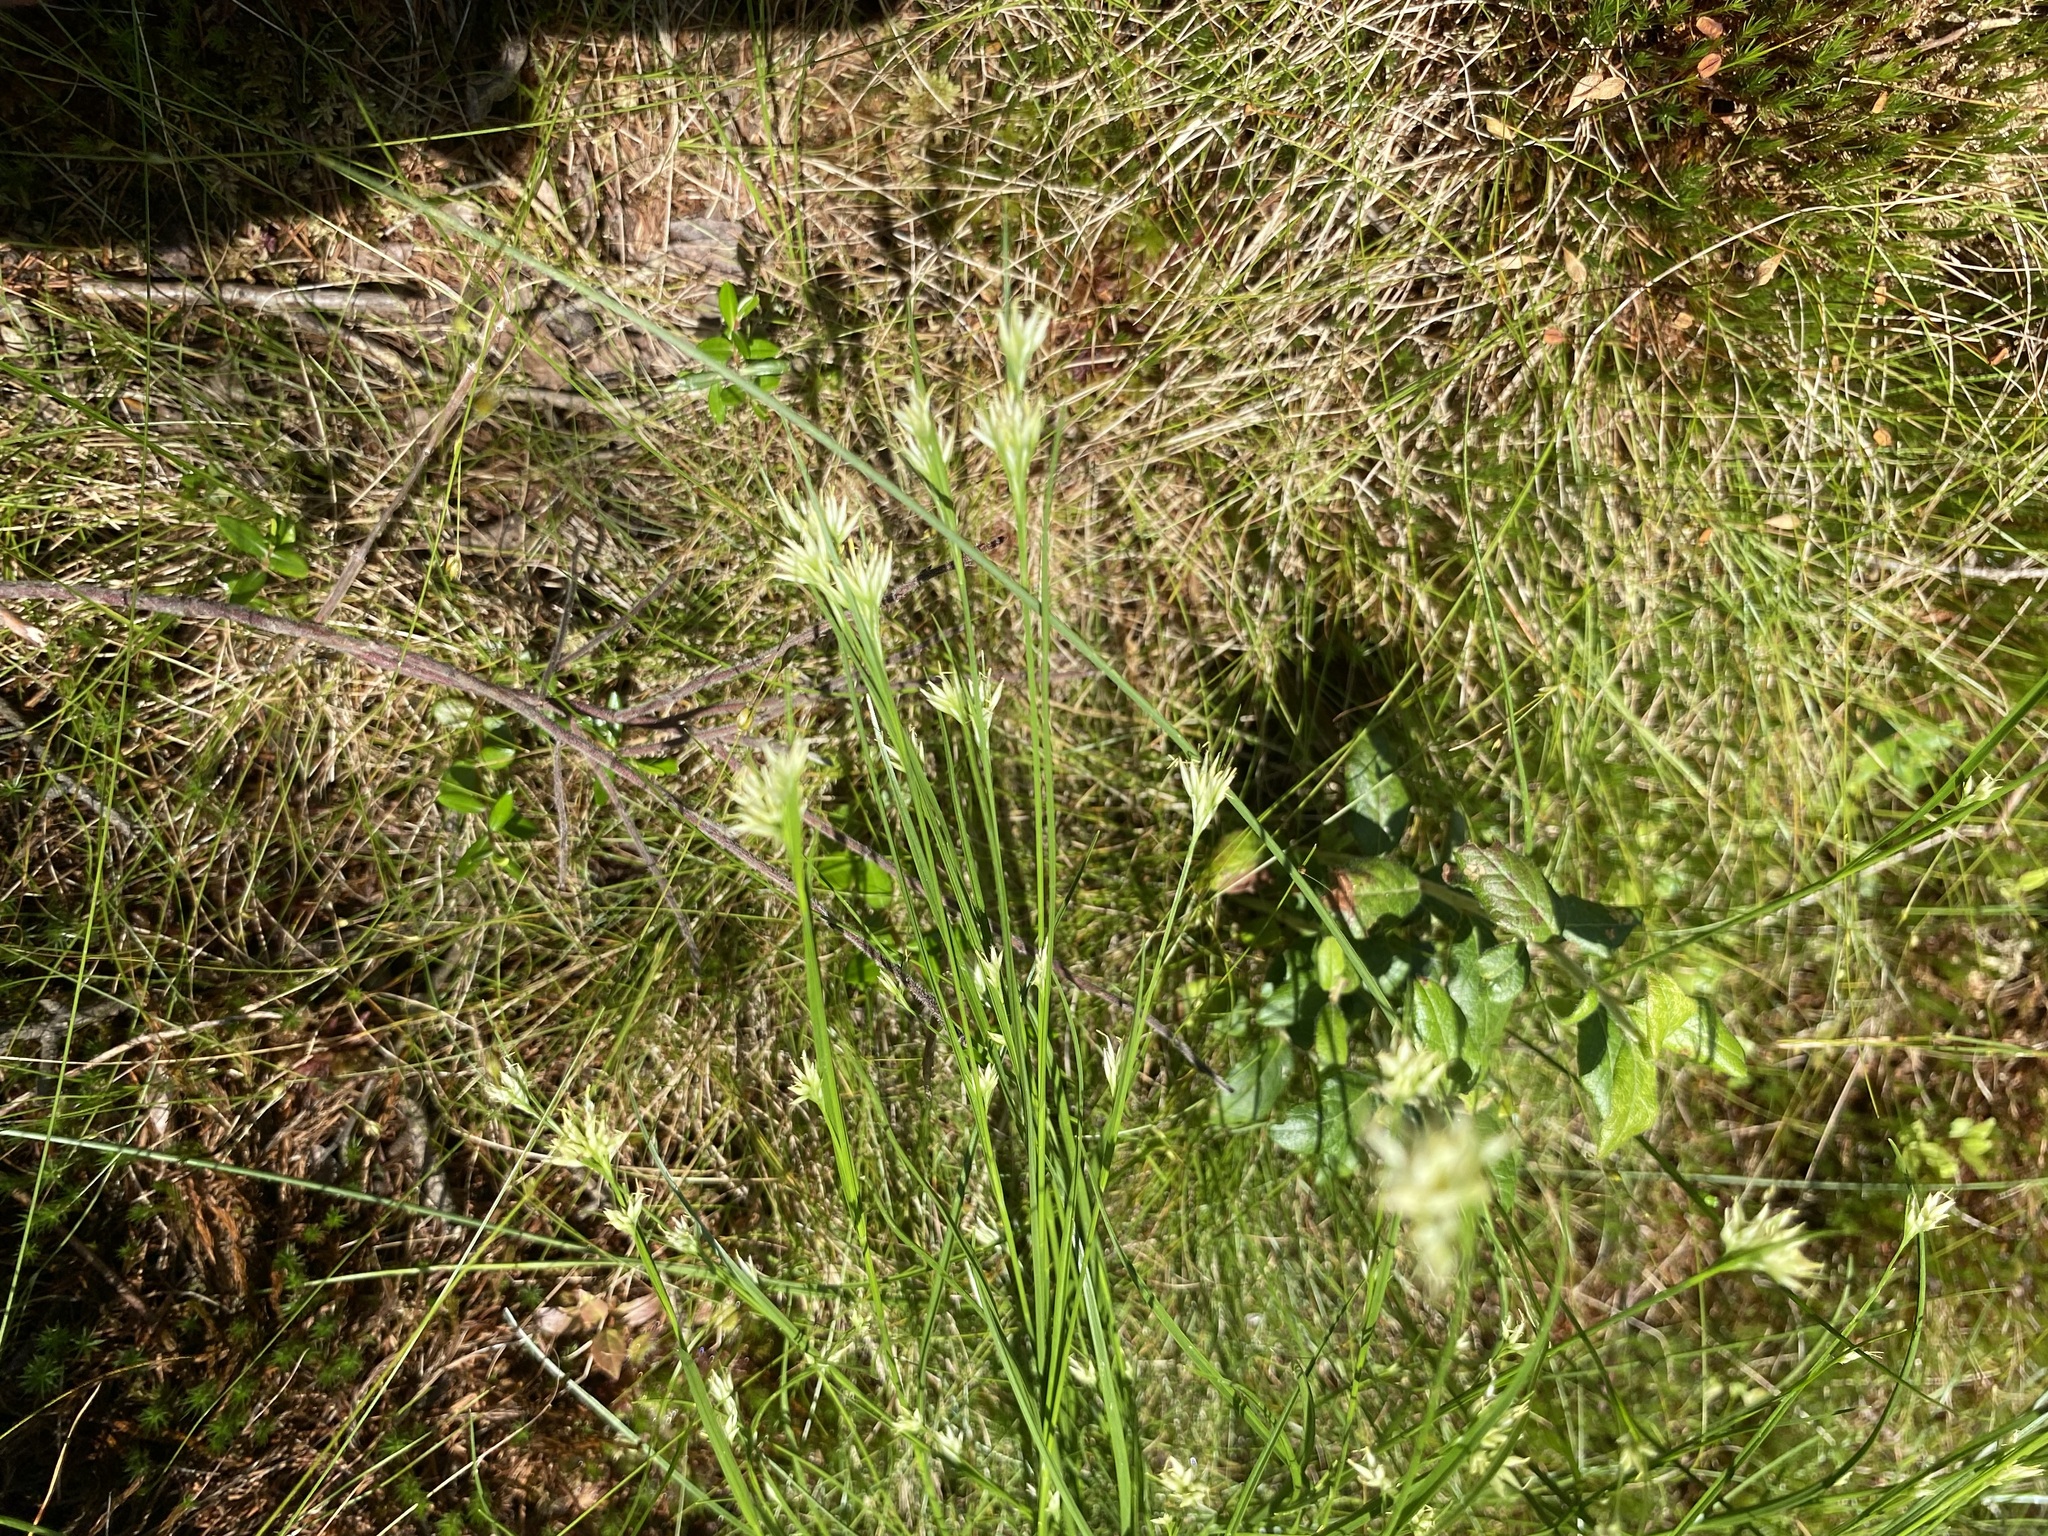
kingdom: Plantae
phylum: Tracheophyta
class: Liliopsida
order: Poales
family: Cyperaceae
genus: Rhynchospora
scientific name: Rhynchospora alba
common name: White beak-sedge
